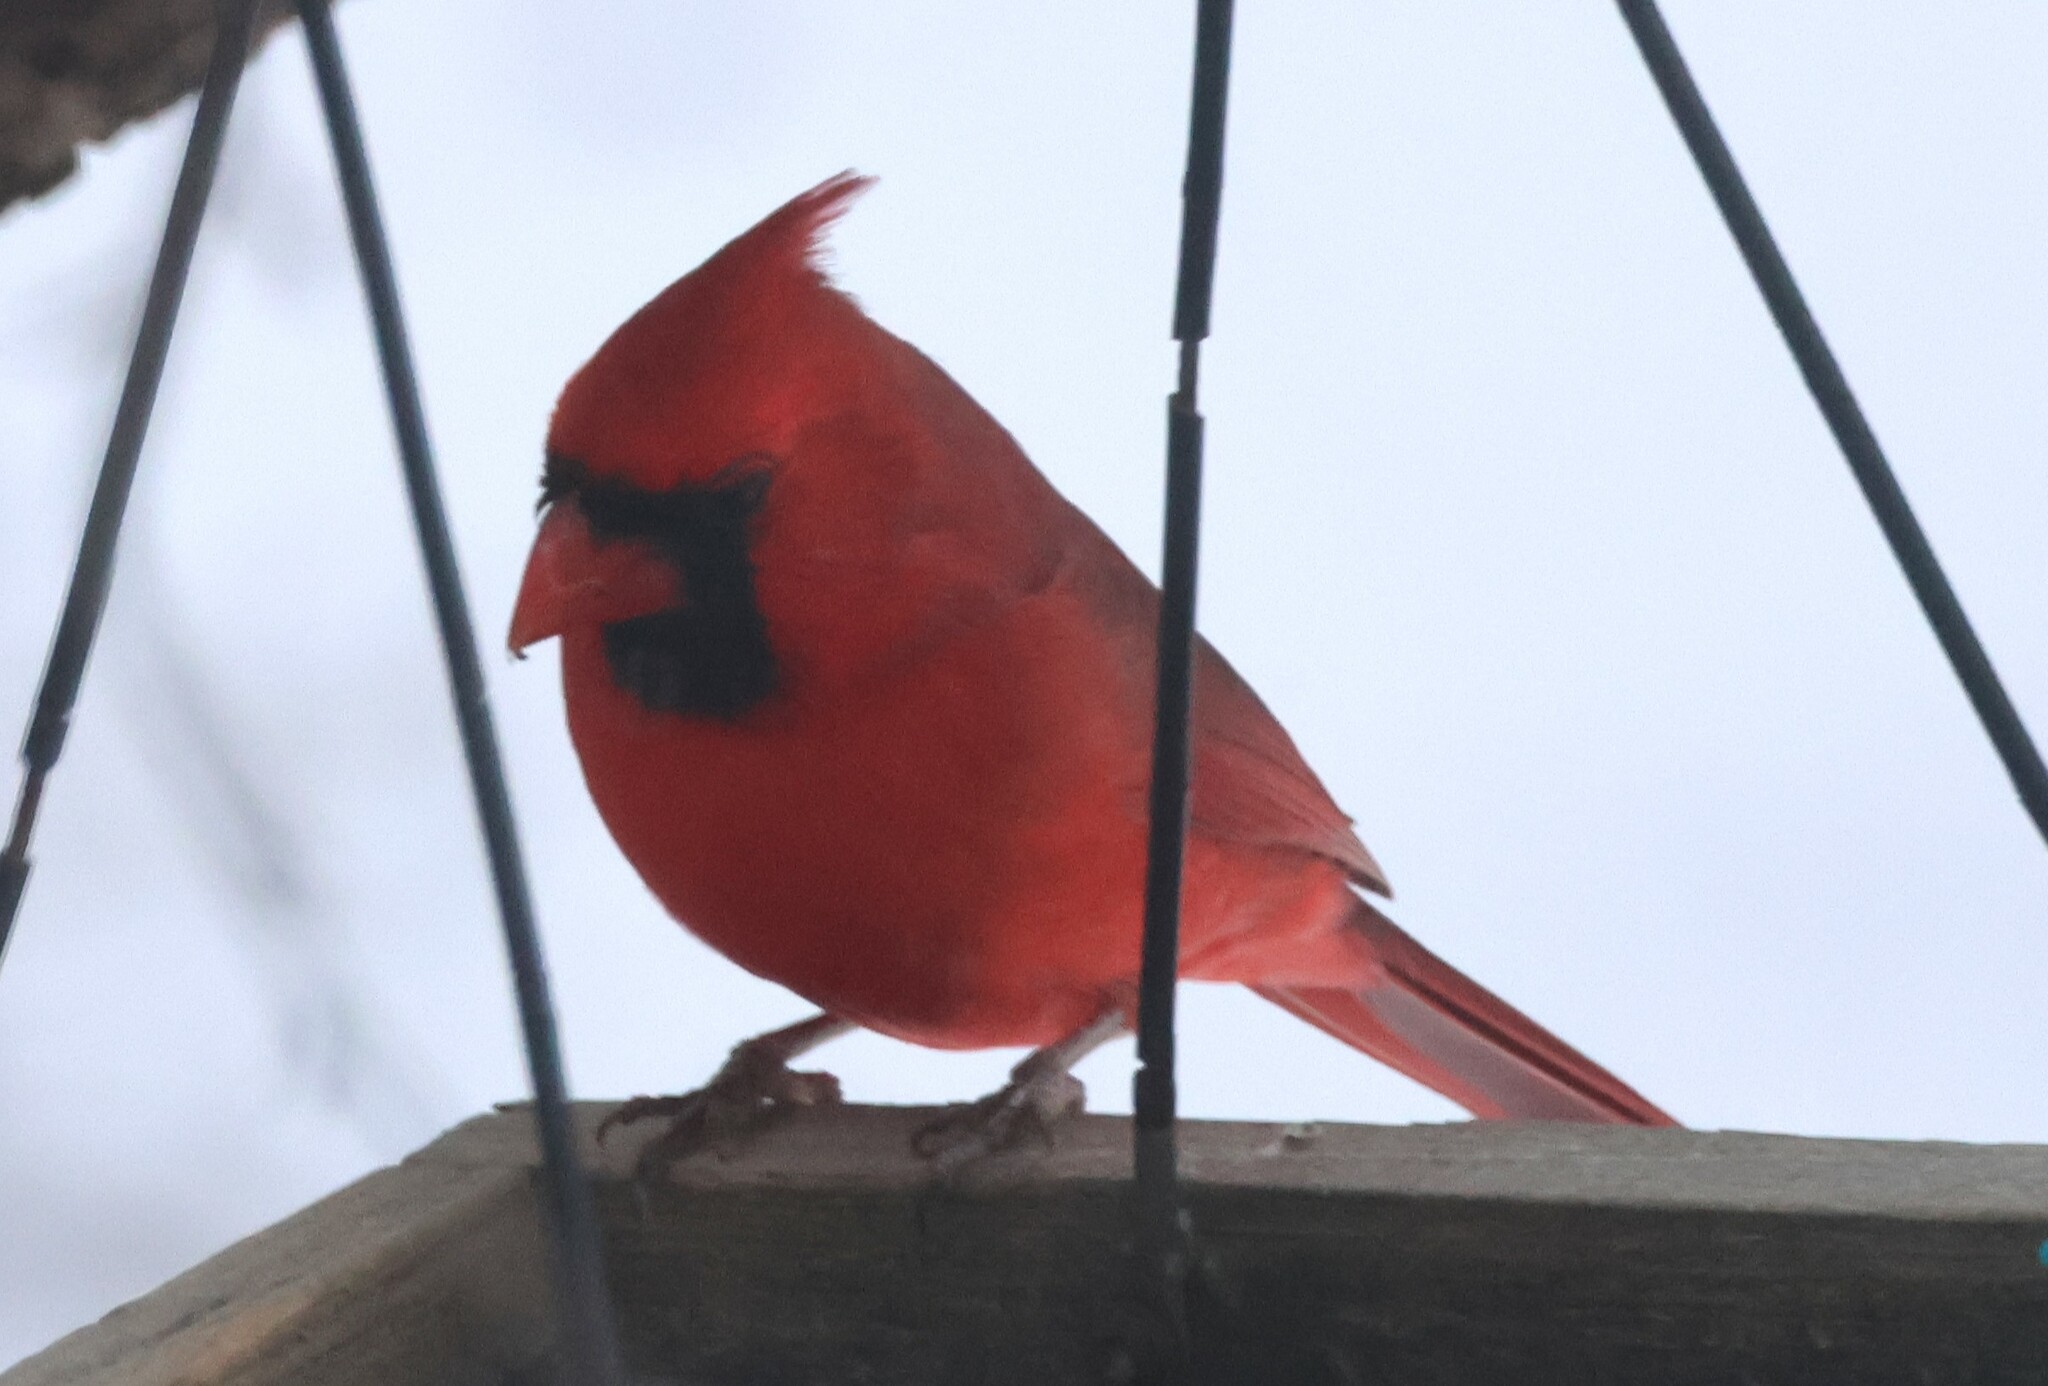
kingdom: Animalia
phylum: Chordata
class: Aves
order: Passeriformes
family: Cardinalidae
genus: Cardinalis
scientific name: Cardinalis cardinalis
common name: Northern cardinal
